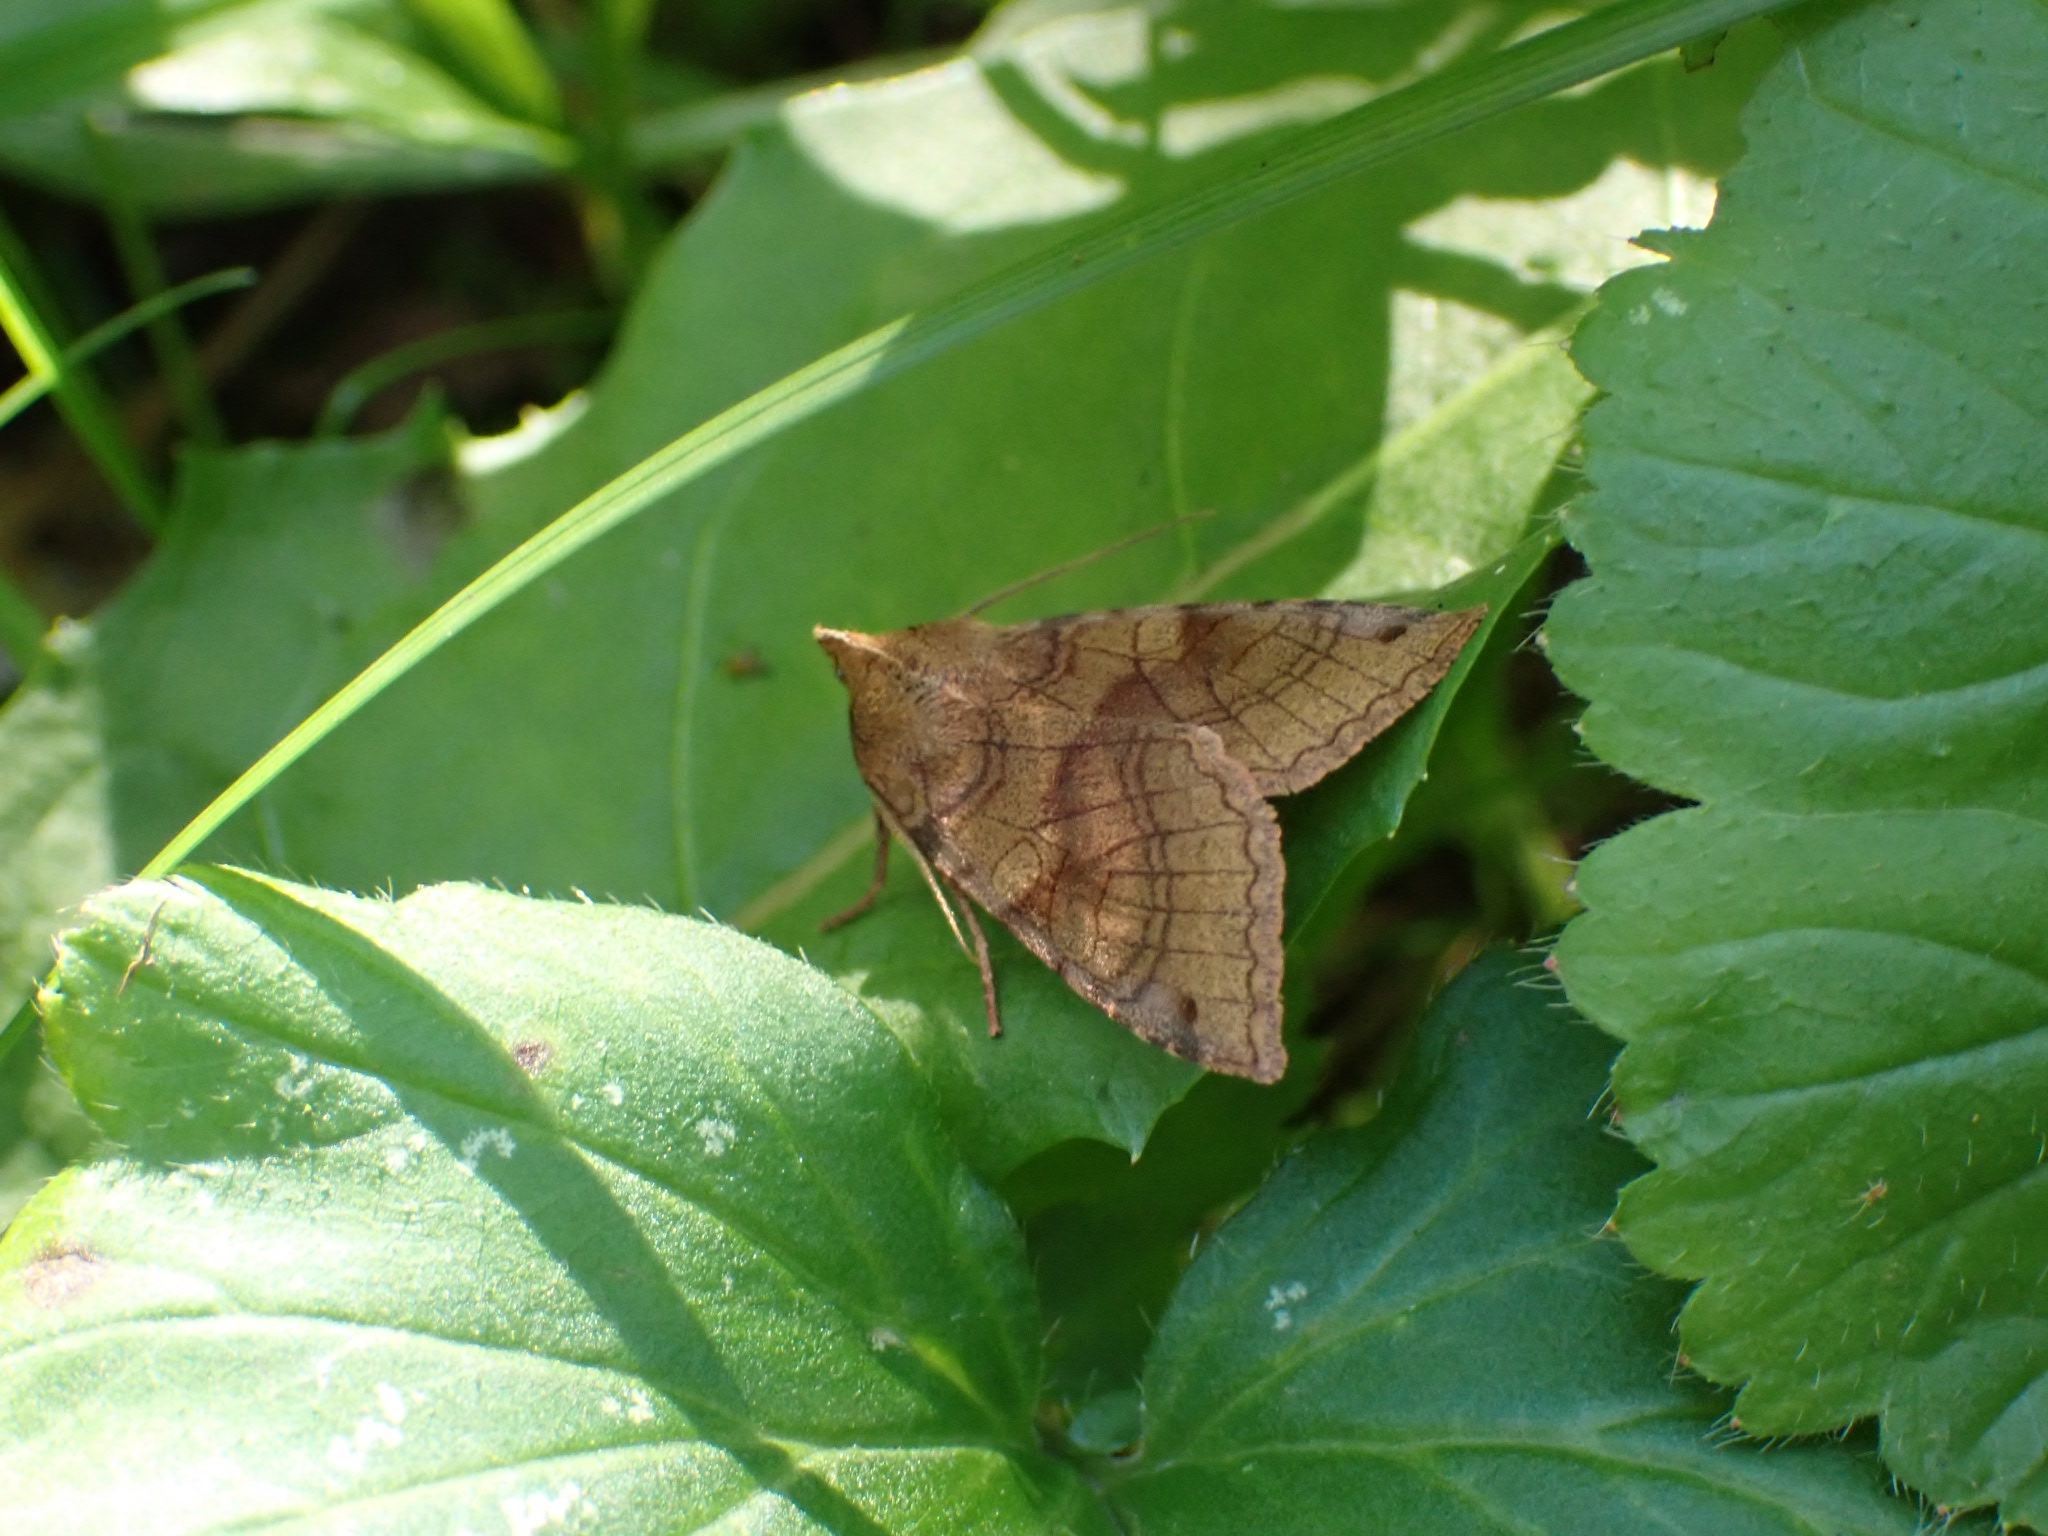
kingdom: Animalia
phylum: Arthropoda
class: Insecta
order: Lepidoptera
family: Noctuidae
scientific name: Noctuidae
